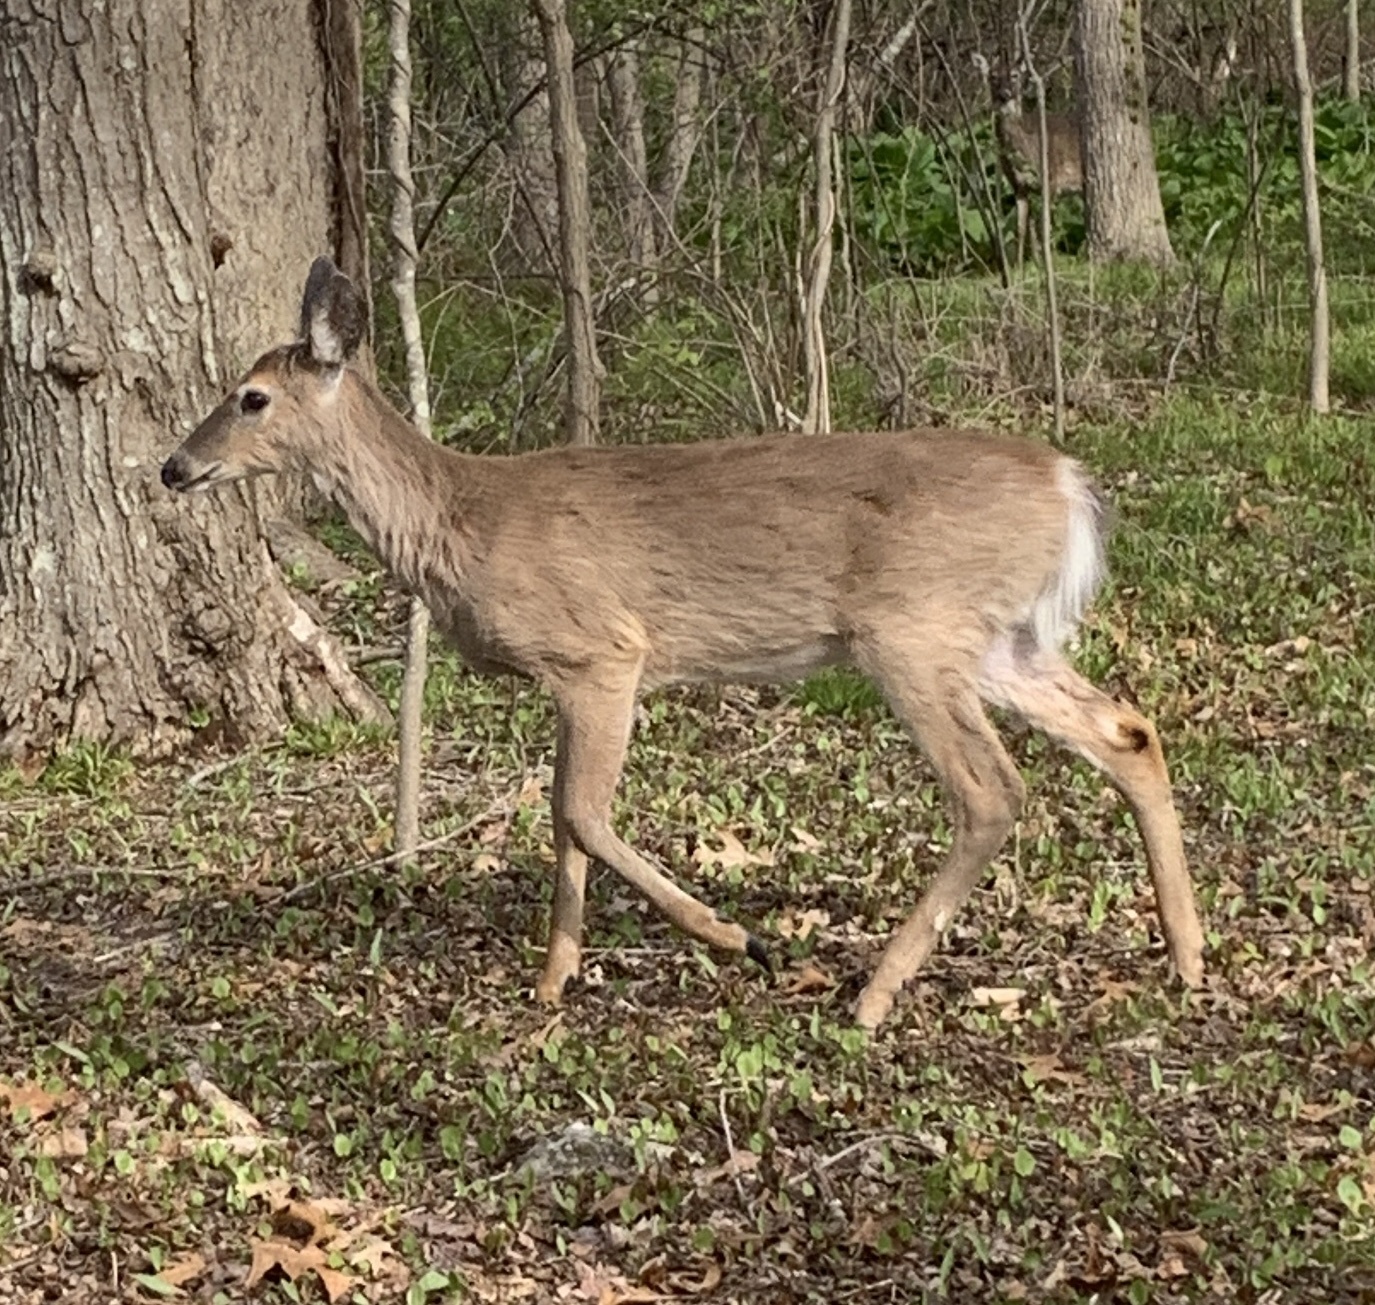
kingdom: Animalia
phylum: Chordata
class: Mammalia
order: Artiodactyla
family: Cervidae
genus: Odocoileus
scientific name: Odocoileus virginianus
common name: White-tailed deer
